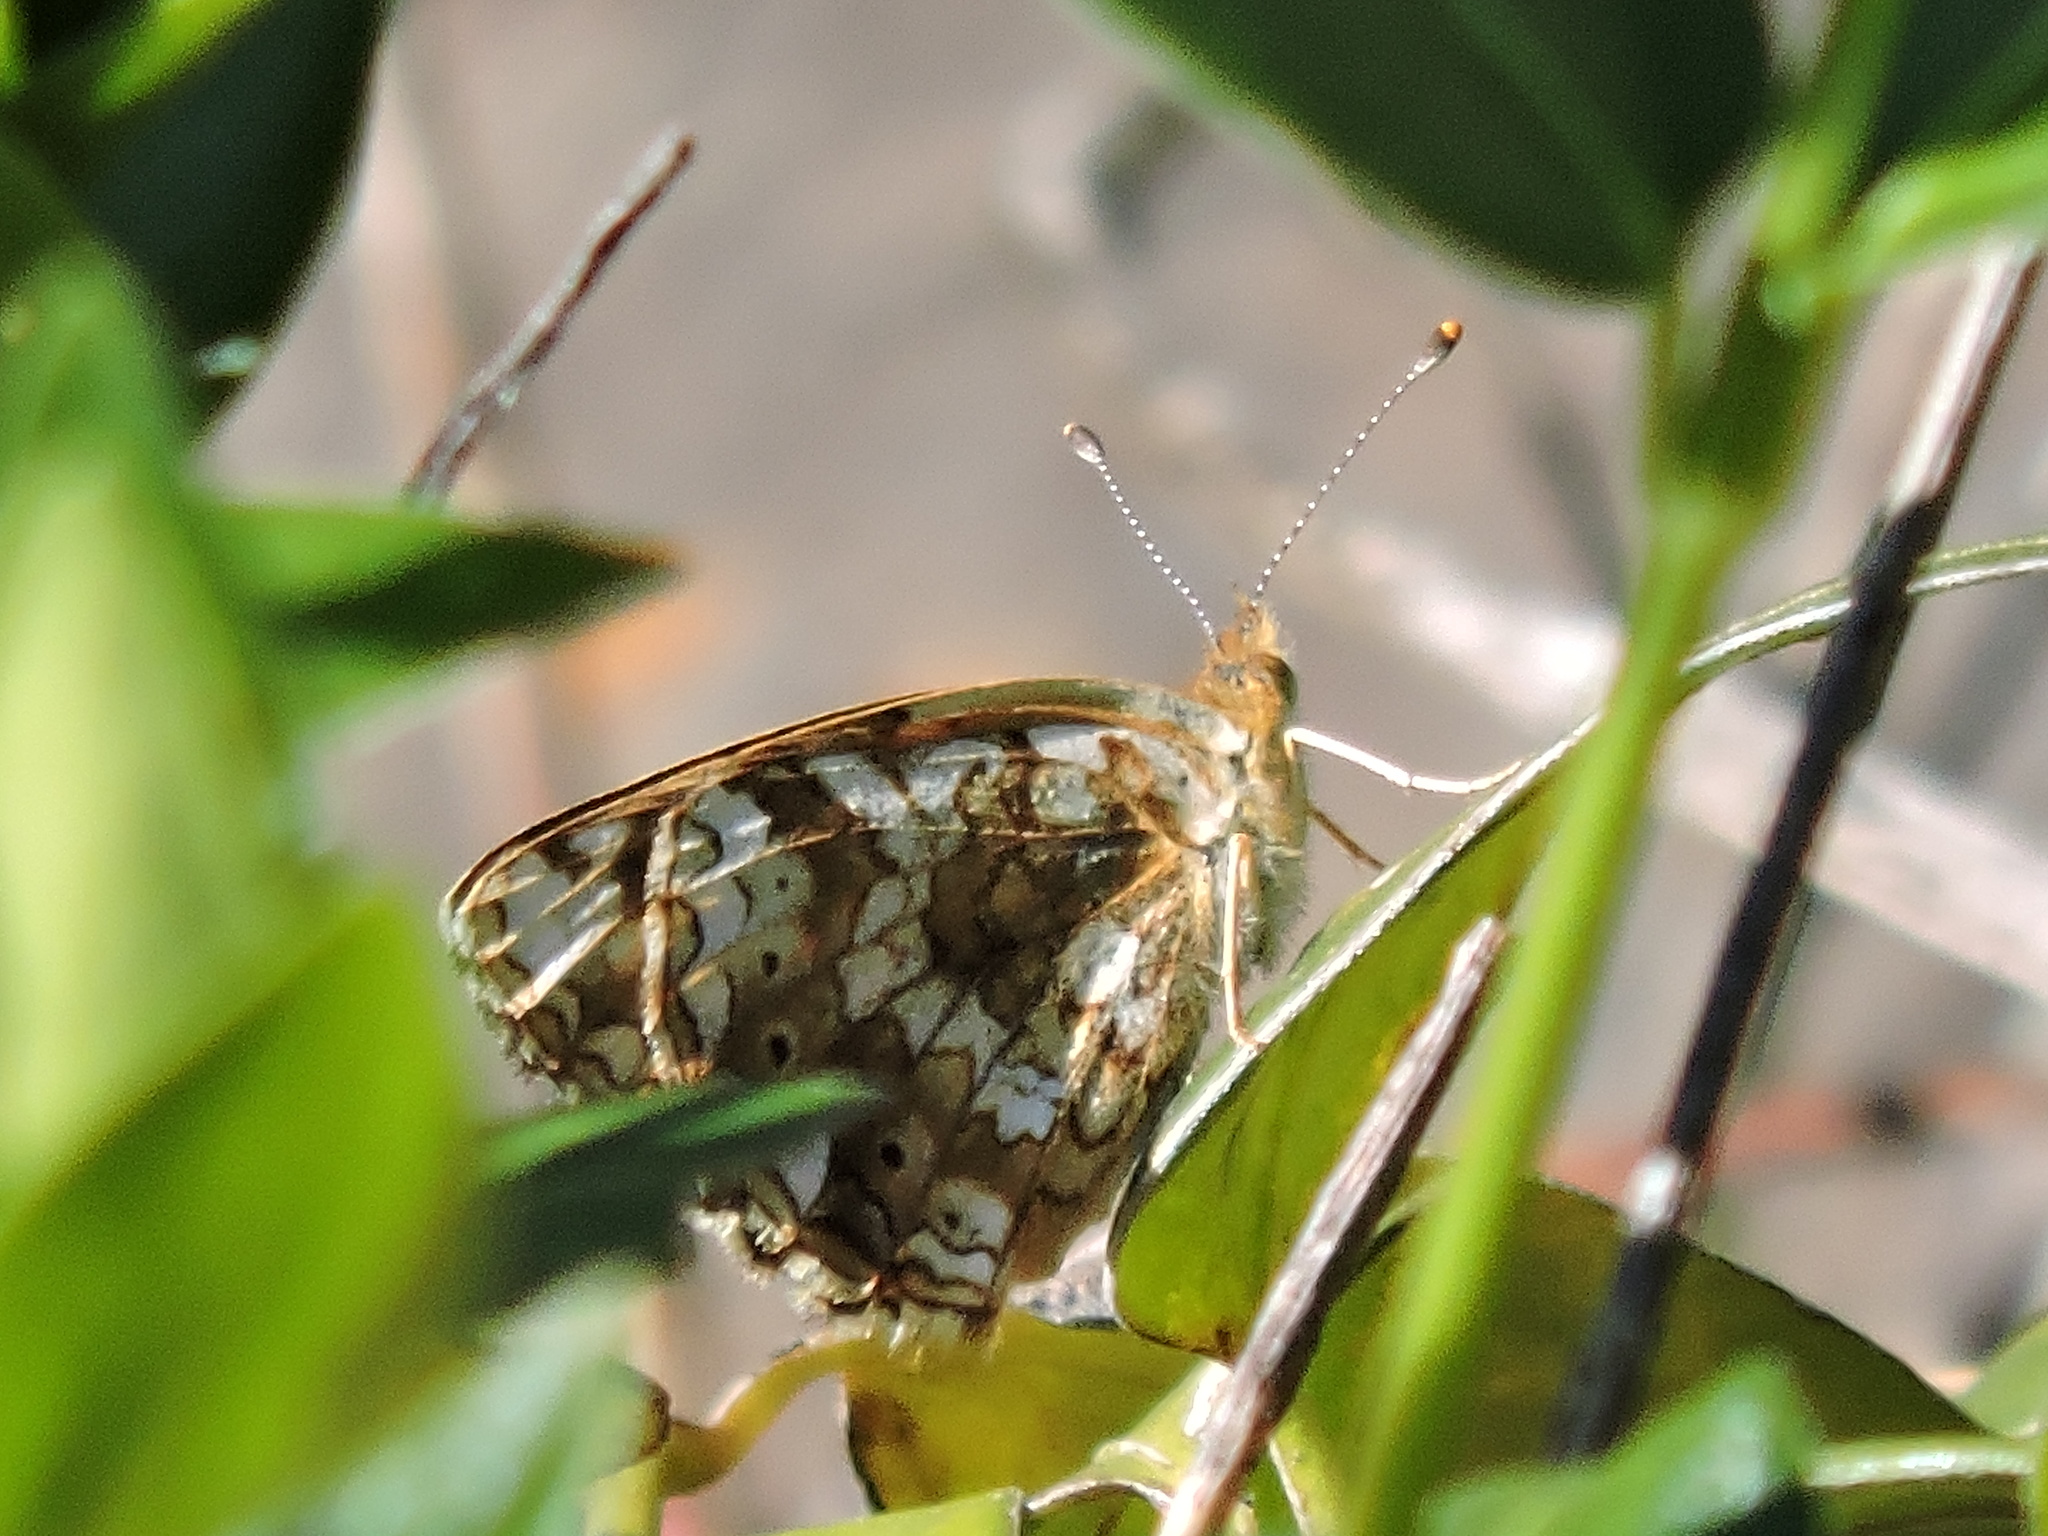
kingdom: Animalia
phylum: Arthropoda
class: Insecta
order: Lepidoptera
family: Nymphalidae
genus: Eresia
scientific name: Eresia aveyrona
